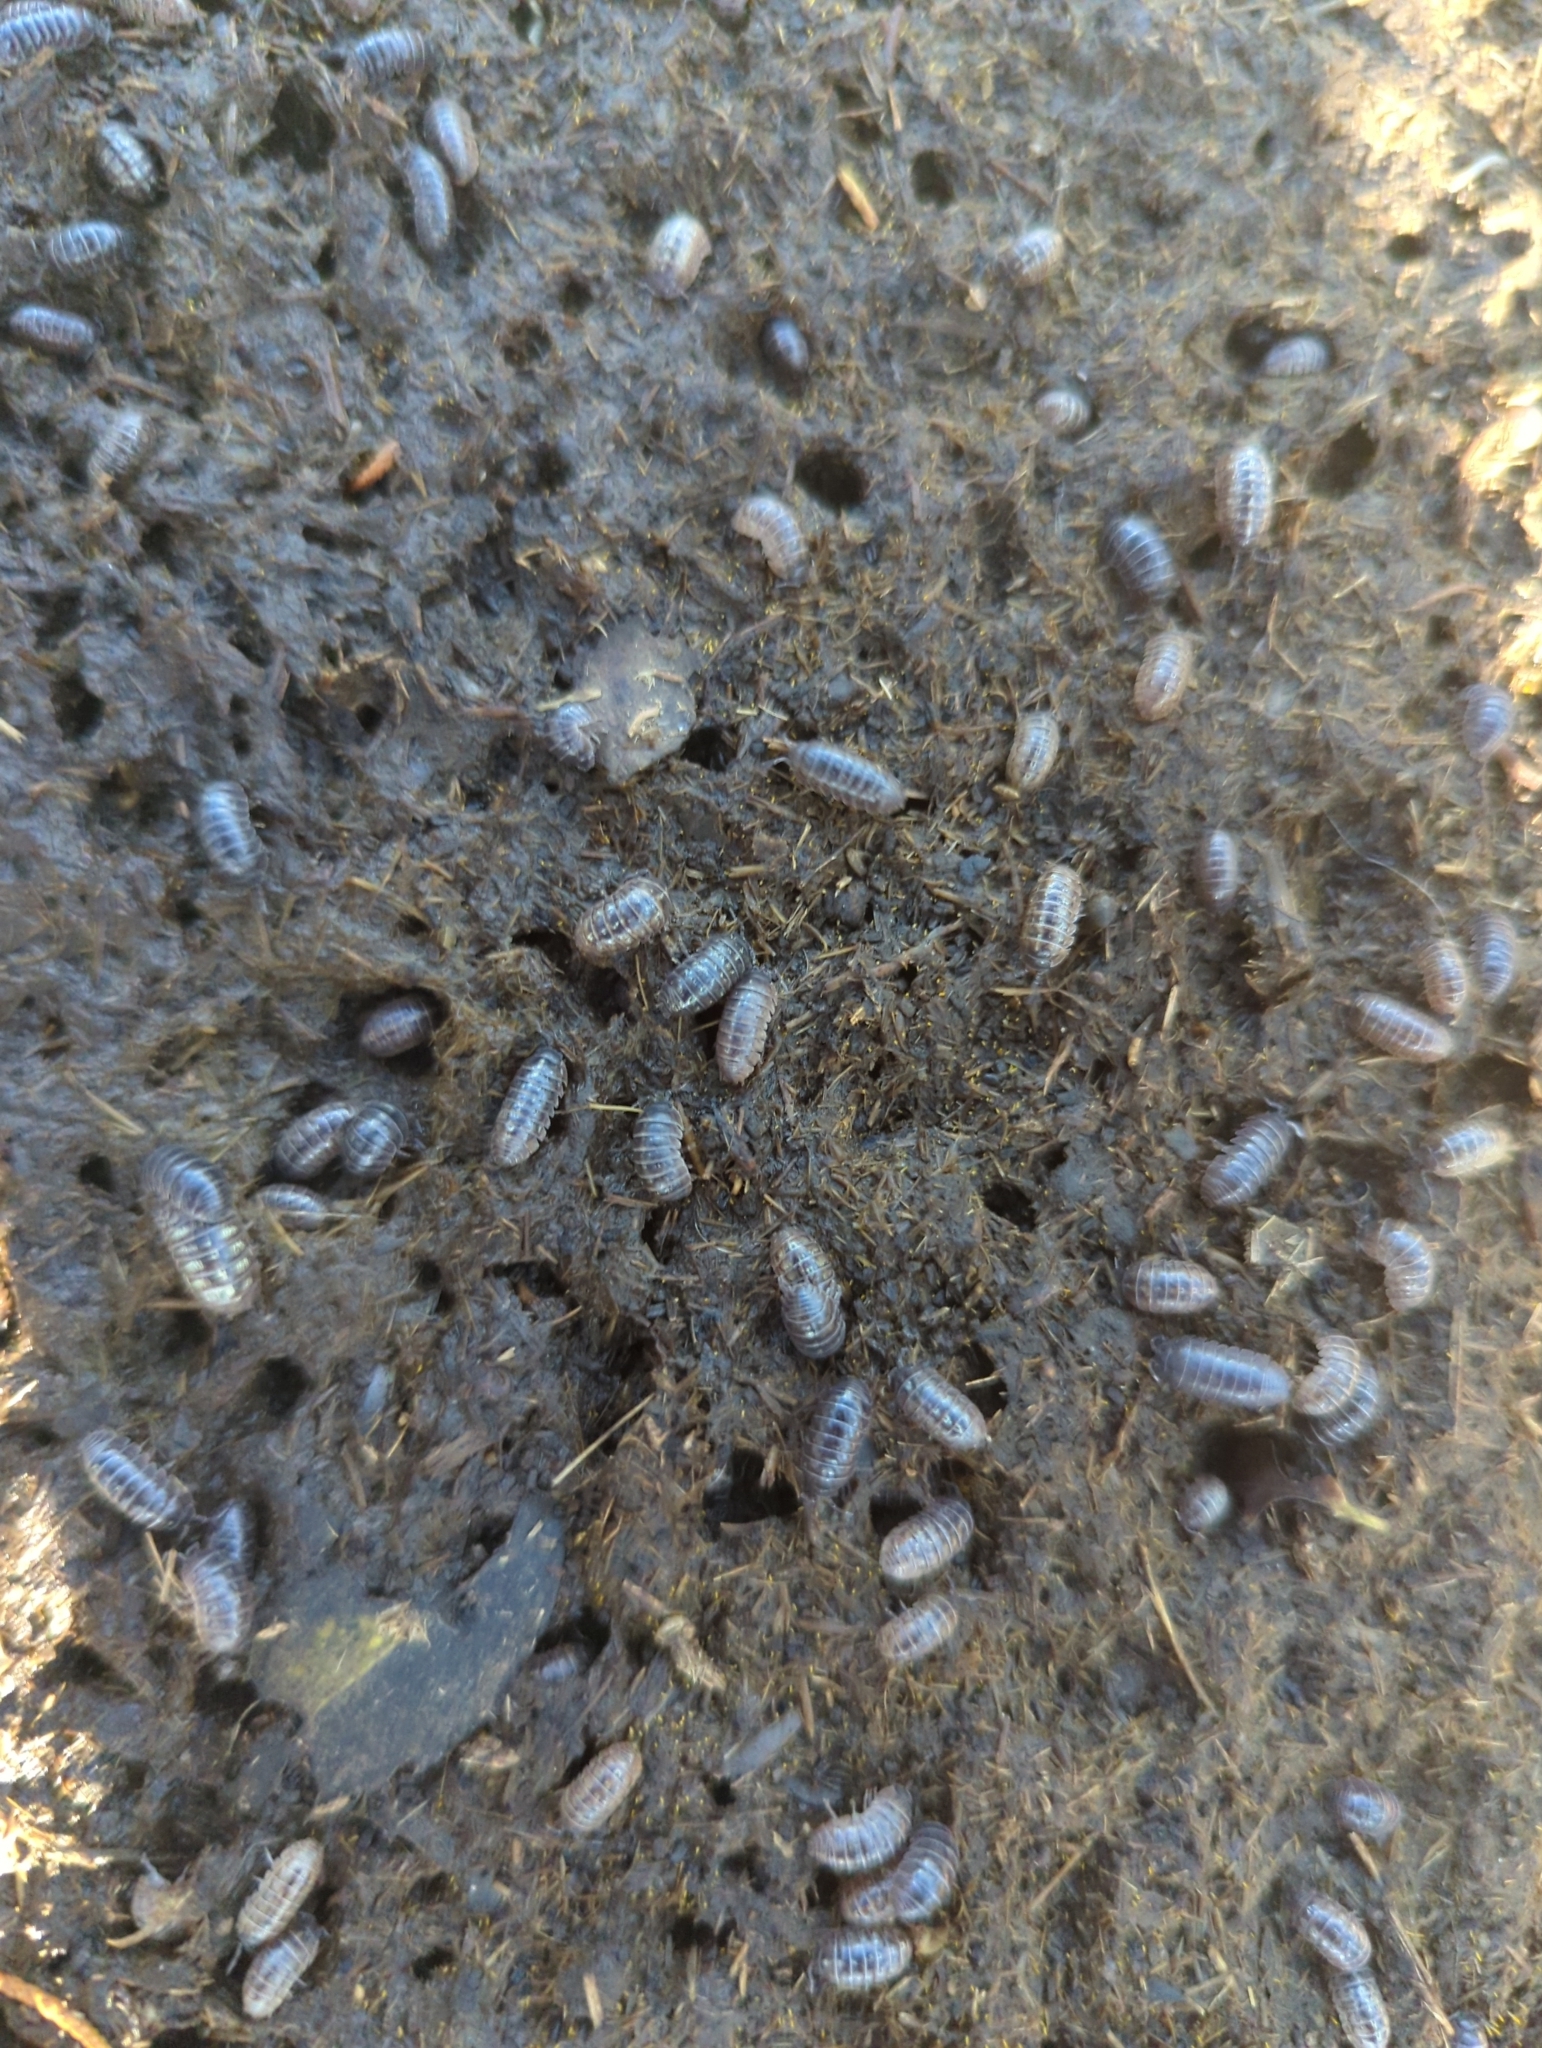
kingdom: Animalia
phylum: Arthropoda
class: Malacostraca
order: Isopoda
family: Armadillidiidae
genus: Armadillidium
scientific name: Armadillidium vulgare
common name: Common pill woodlouse
